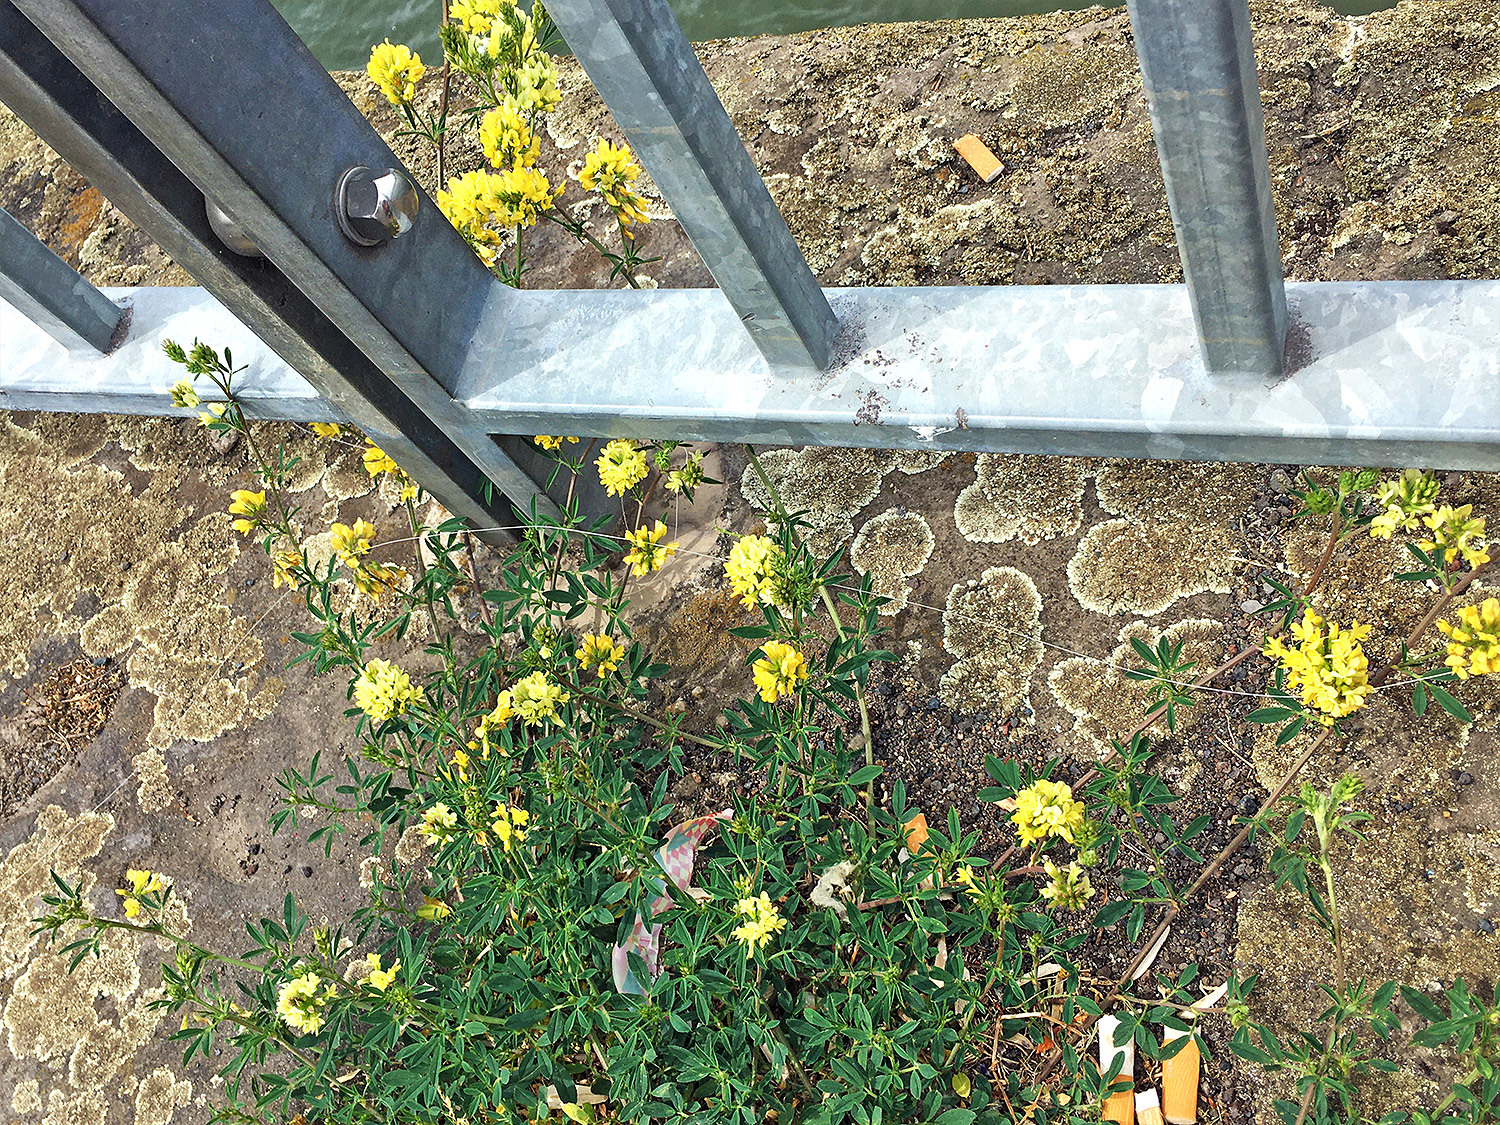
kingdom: Plantae
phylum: Tracheophyta
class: Magnoliopsida
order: Fabales
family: Fabaceae
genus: Medicago
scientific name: Medicago falcata
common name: Sickle medick
